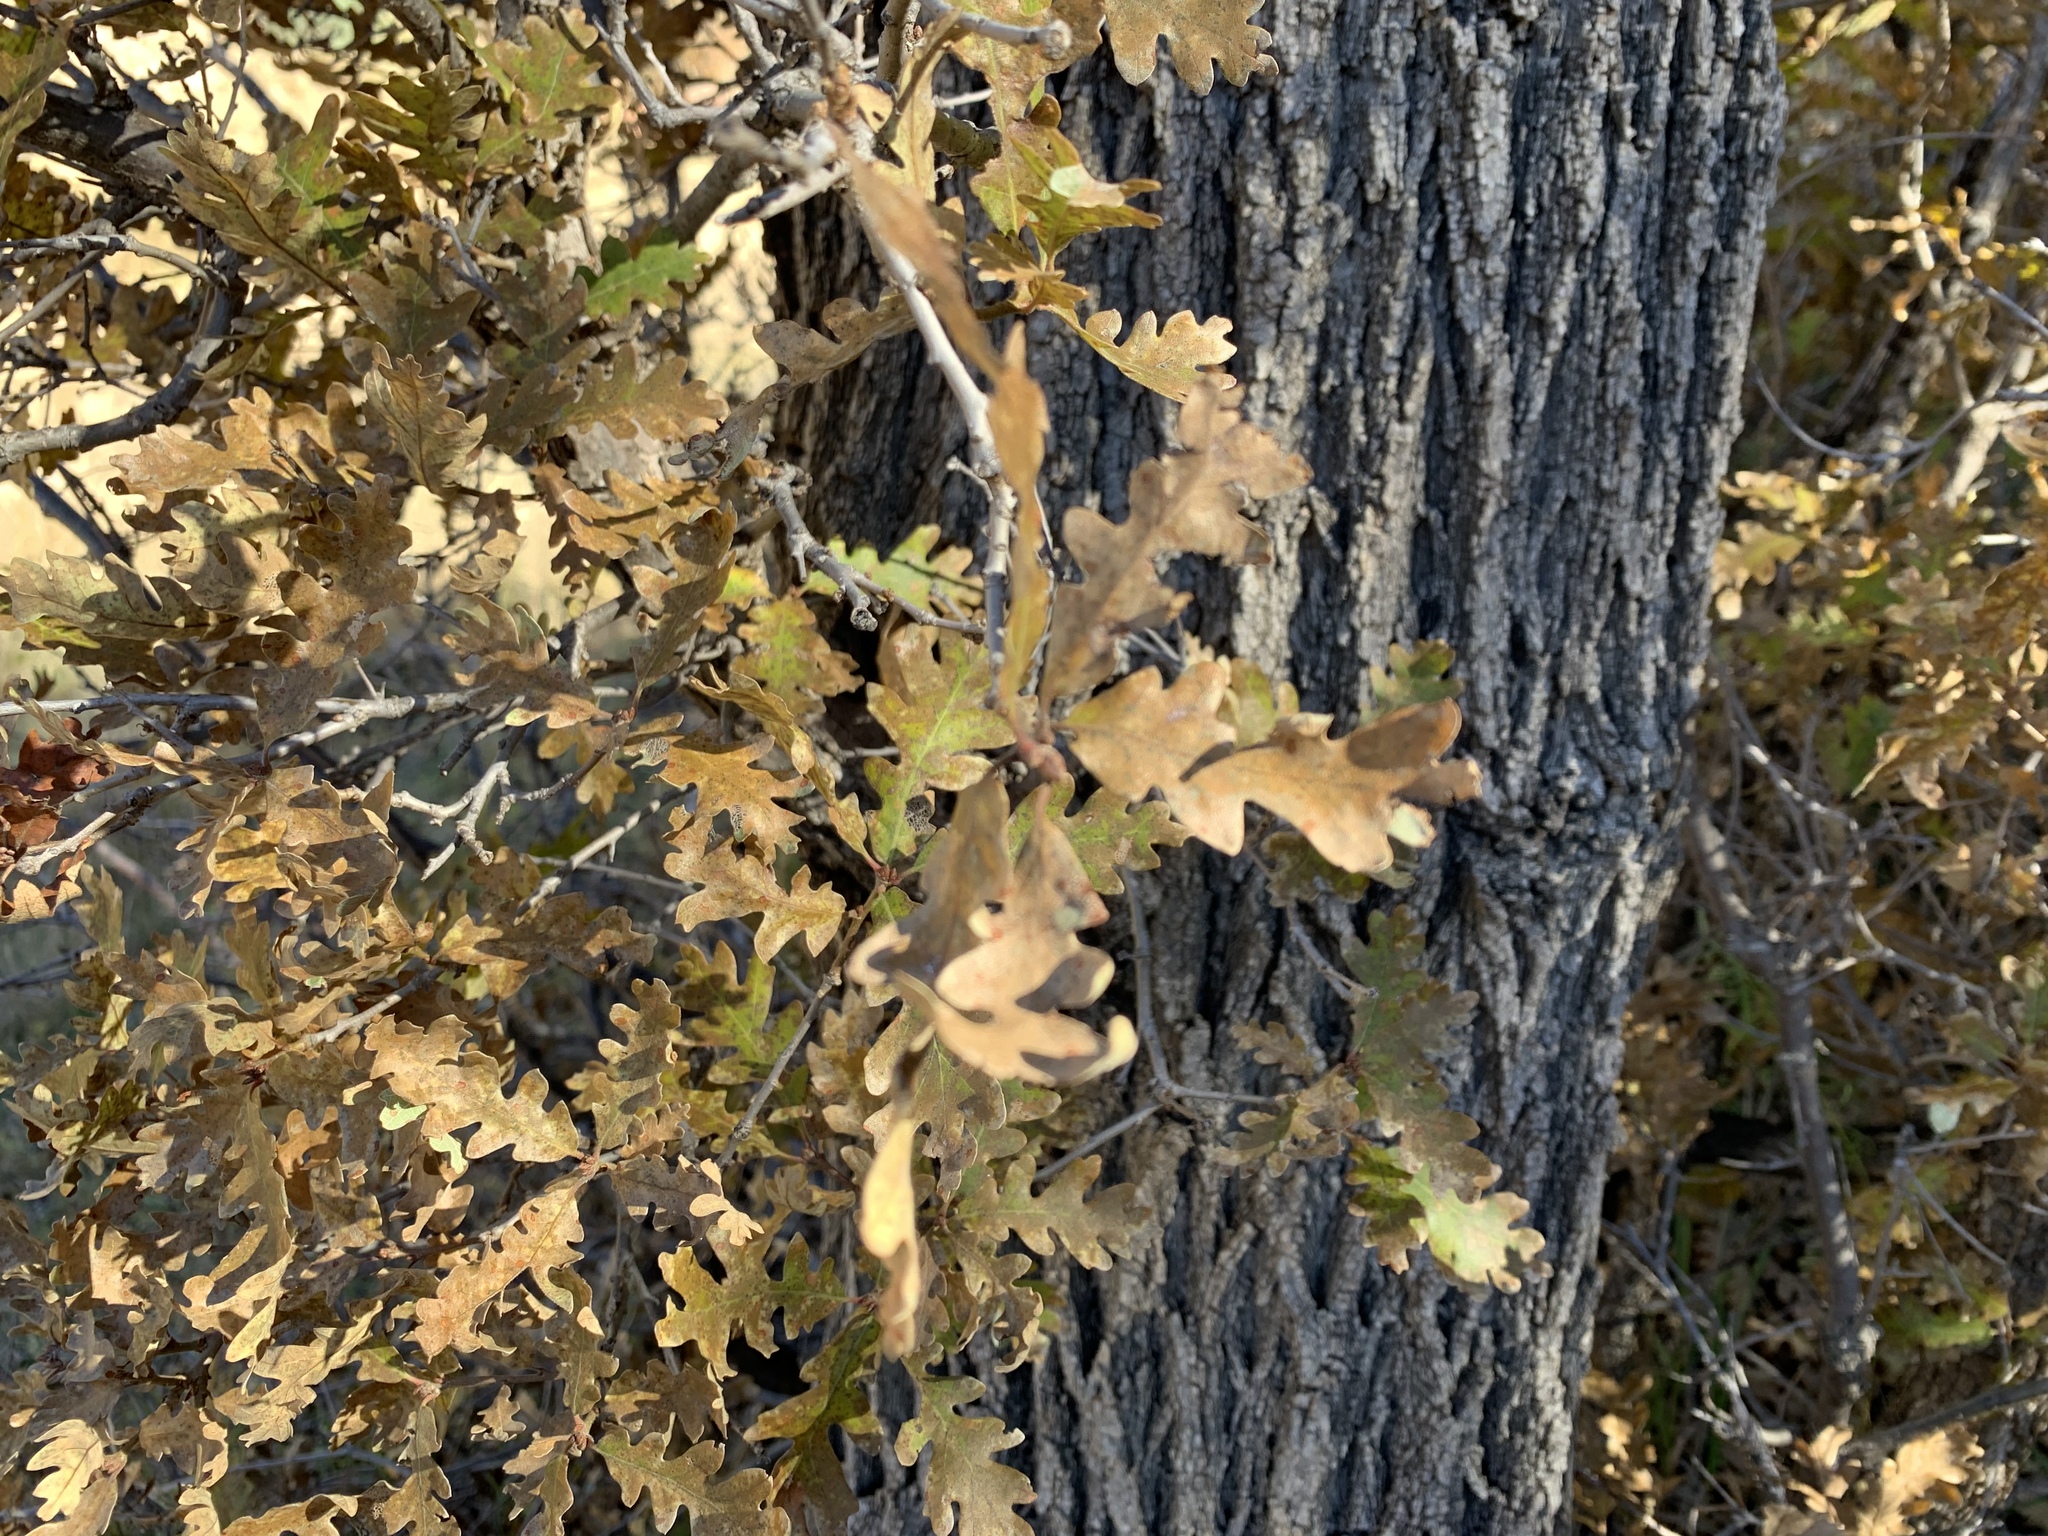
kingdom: Plantae
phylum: Tracheophyta
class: Magnoliopsida
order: Fagales
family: Fagaceae
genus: Quercus
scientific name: Quercus gambelii
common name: Gambel oak
